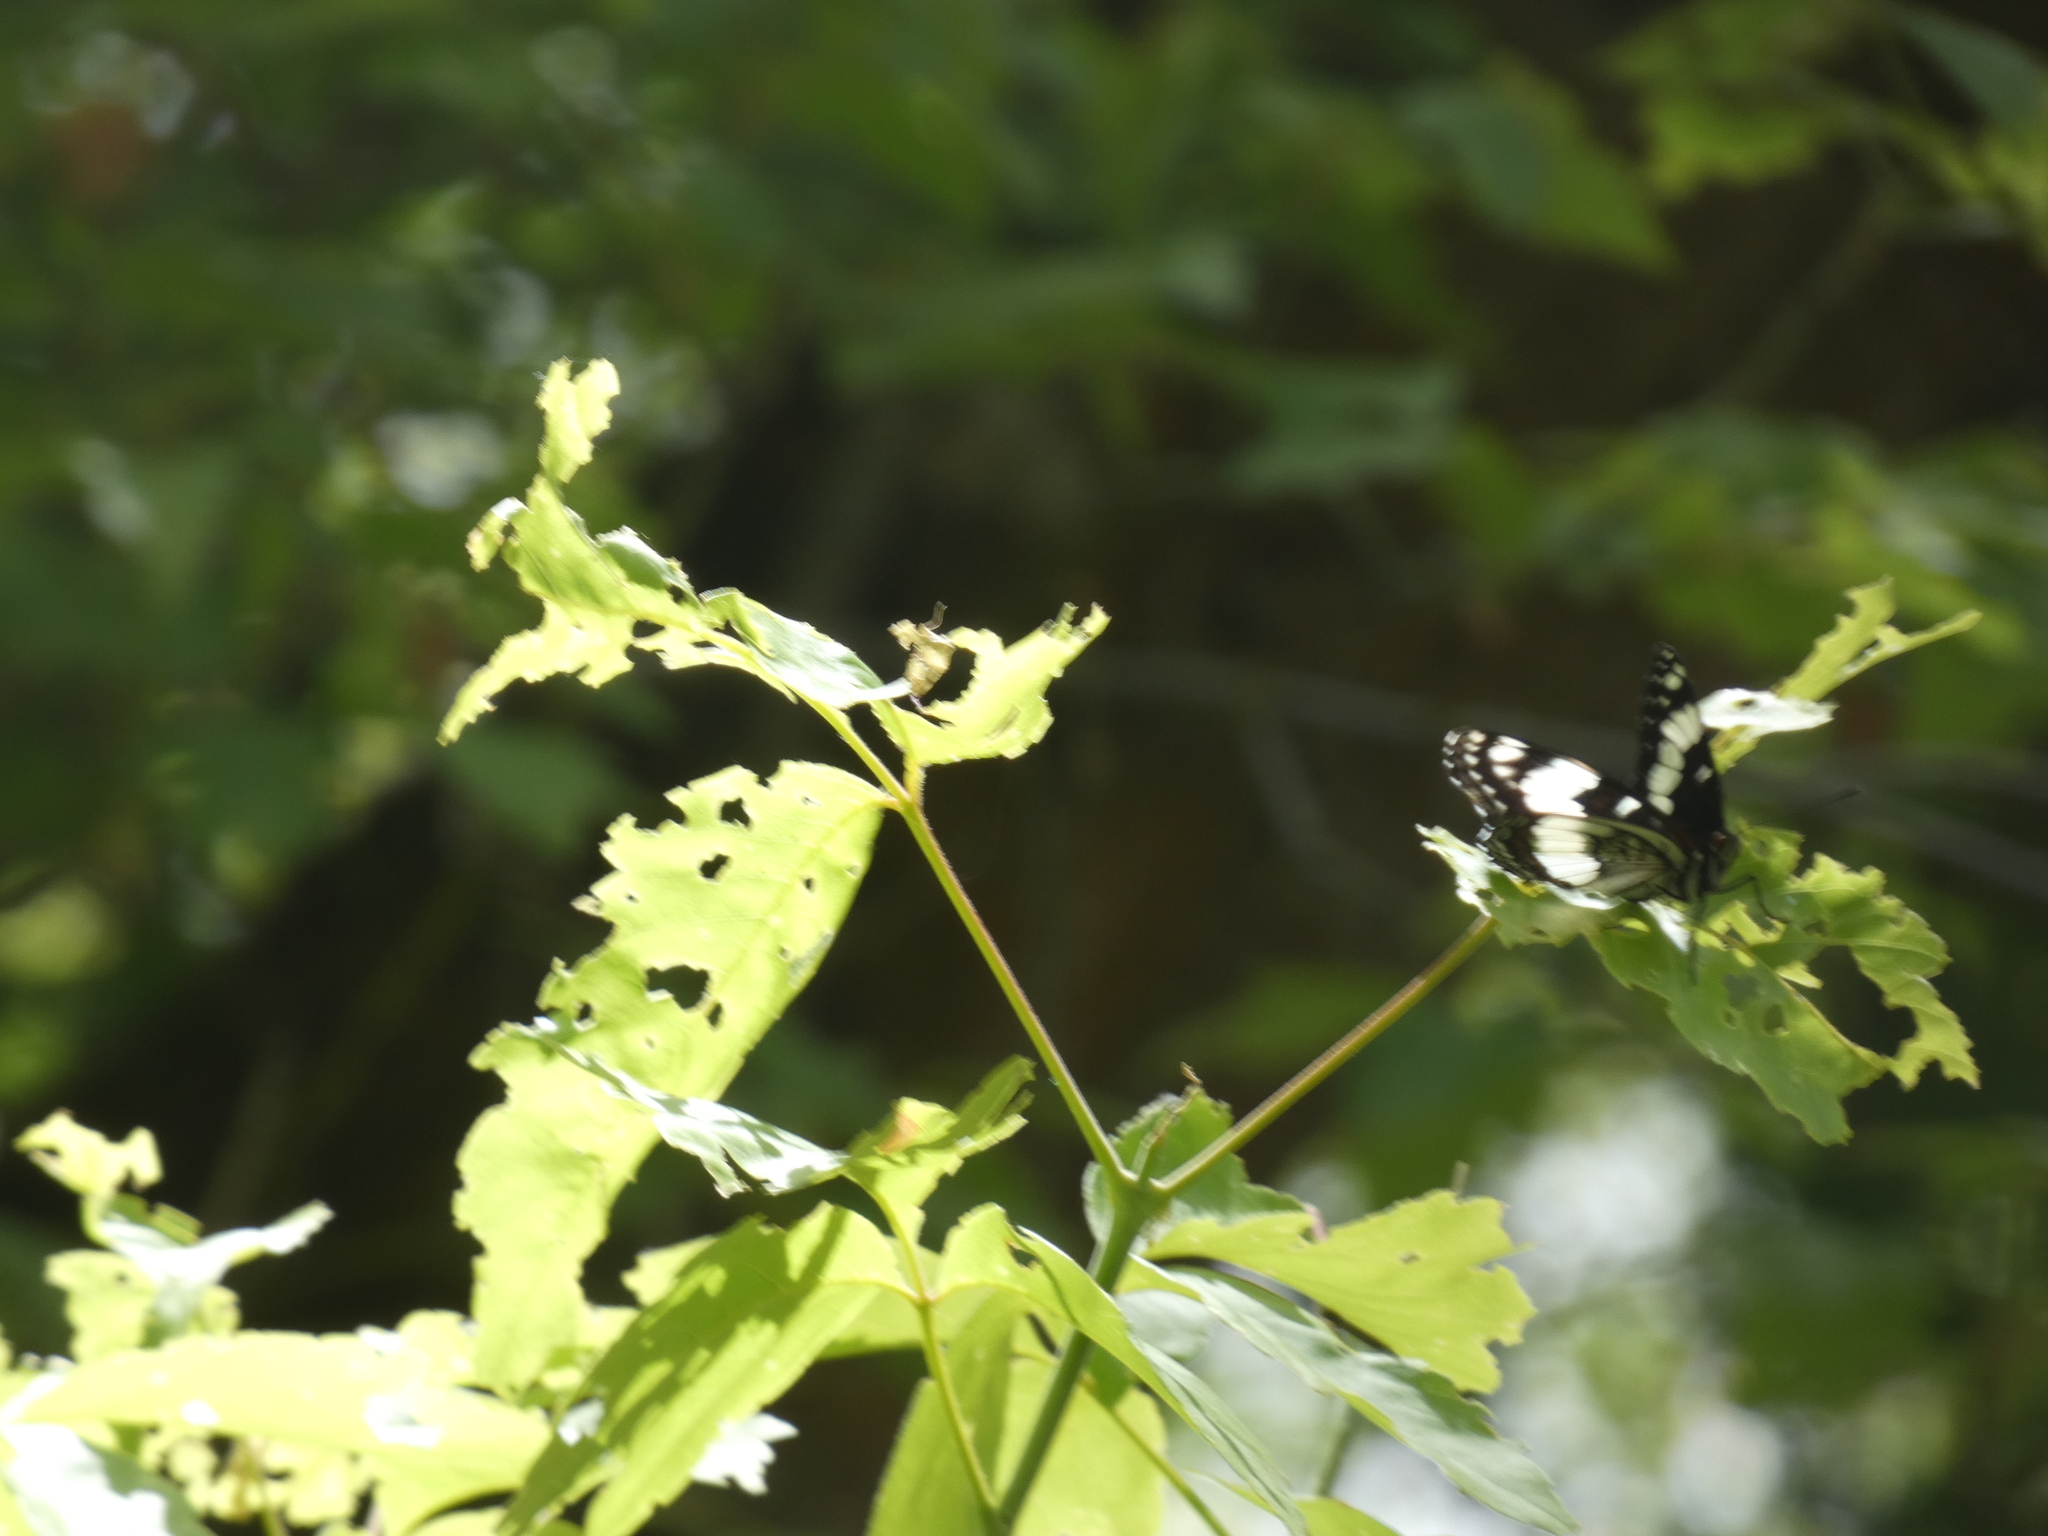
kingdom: Animalia
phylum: Arthropoda
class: Insecta
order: Lepidoptera
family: Nymphalidae
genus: Limenitis
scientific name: Limenitis weidemeyerii
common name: Weidemeyer's admiral
